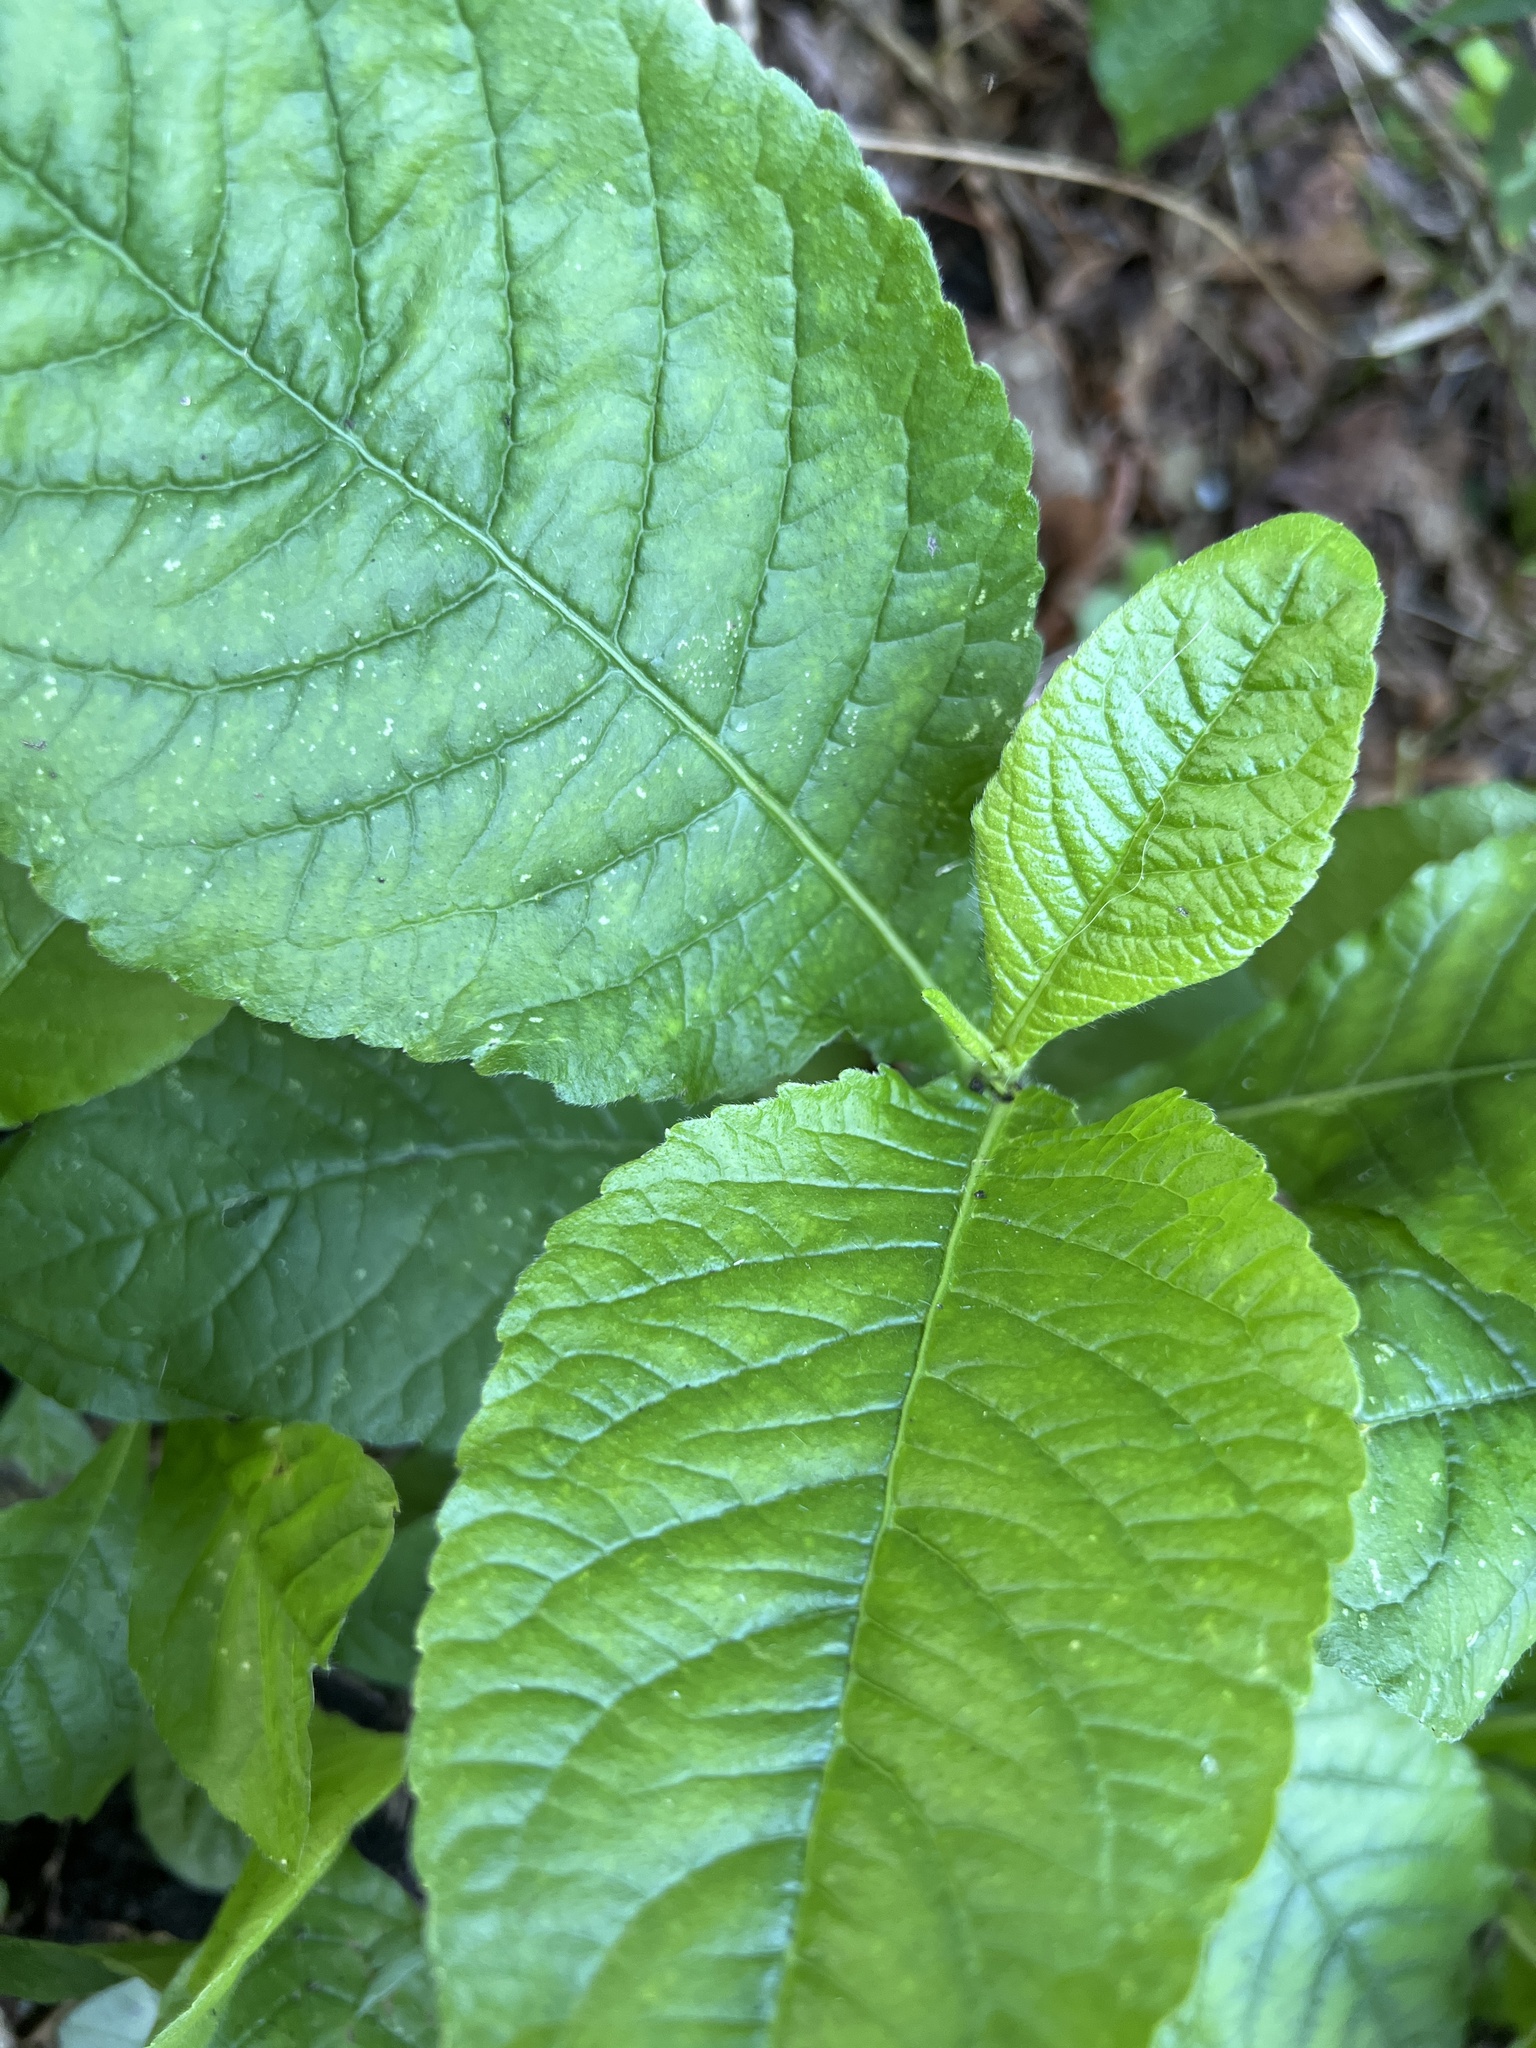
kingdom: Plantae
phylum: Tracheophyta
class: Magnoliopsida
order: Asterales
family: Asteraceae
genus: Elephantopus
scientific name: Elephantopus carolinianus
